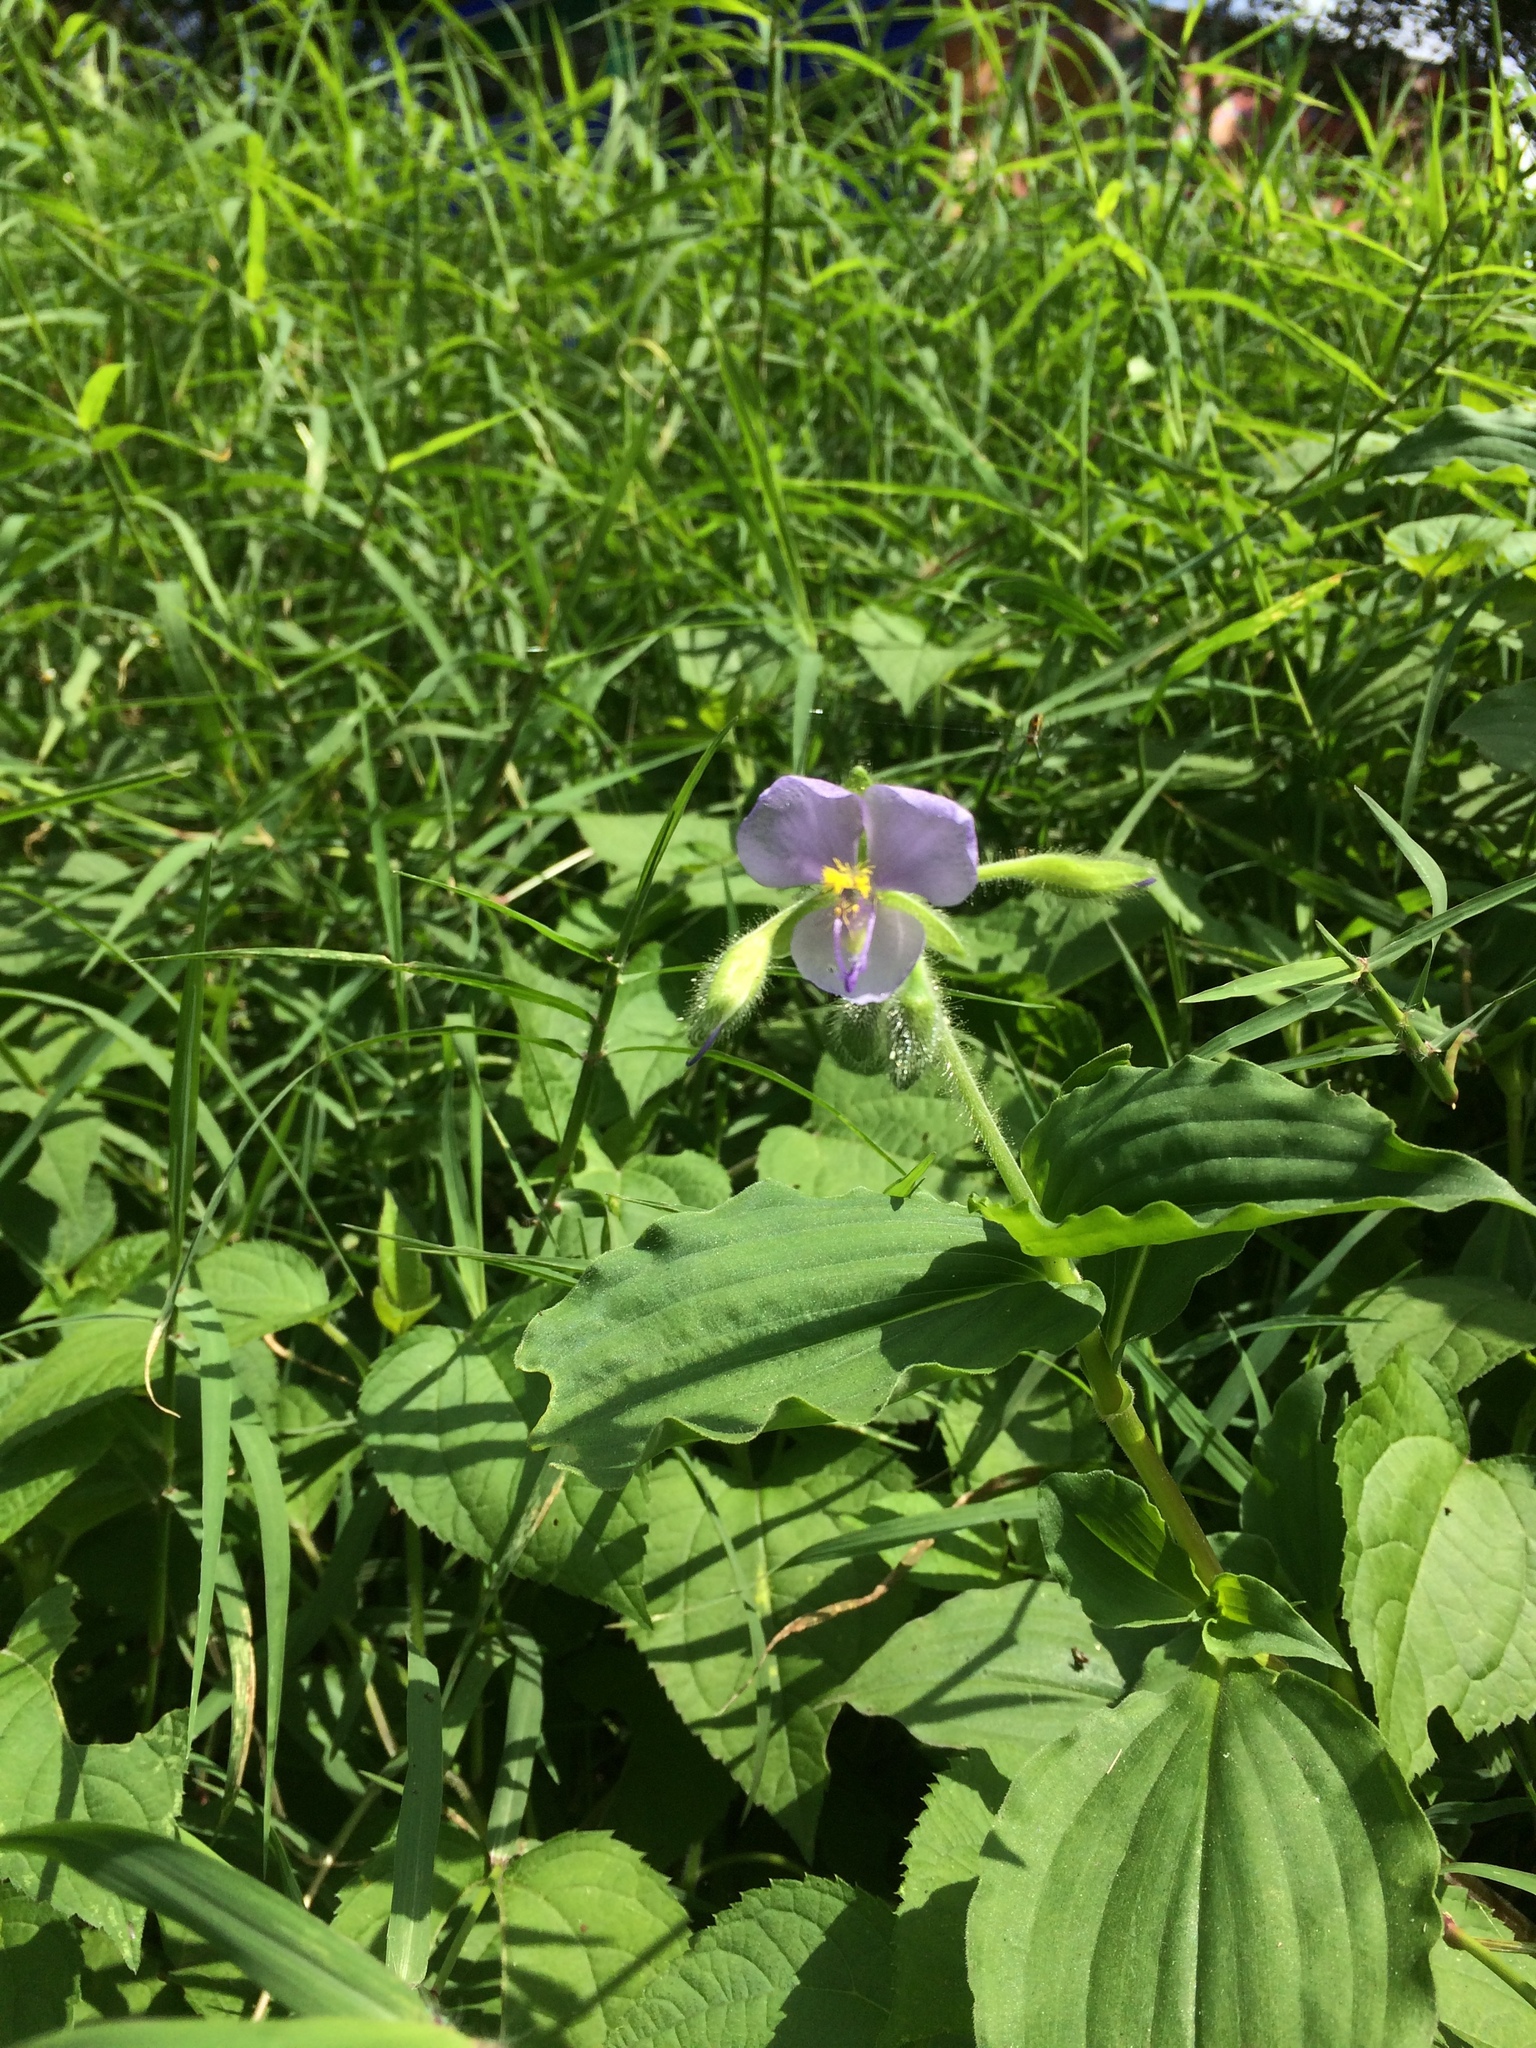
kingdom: Plantae
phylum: Tracheophyta
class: Liliopsida
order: Commelinales
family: Commelinaceae
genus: Tinantia
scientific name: Tinantia erecta
